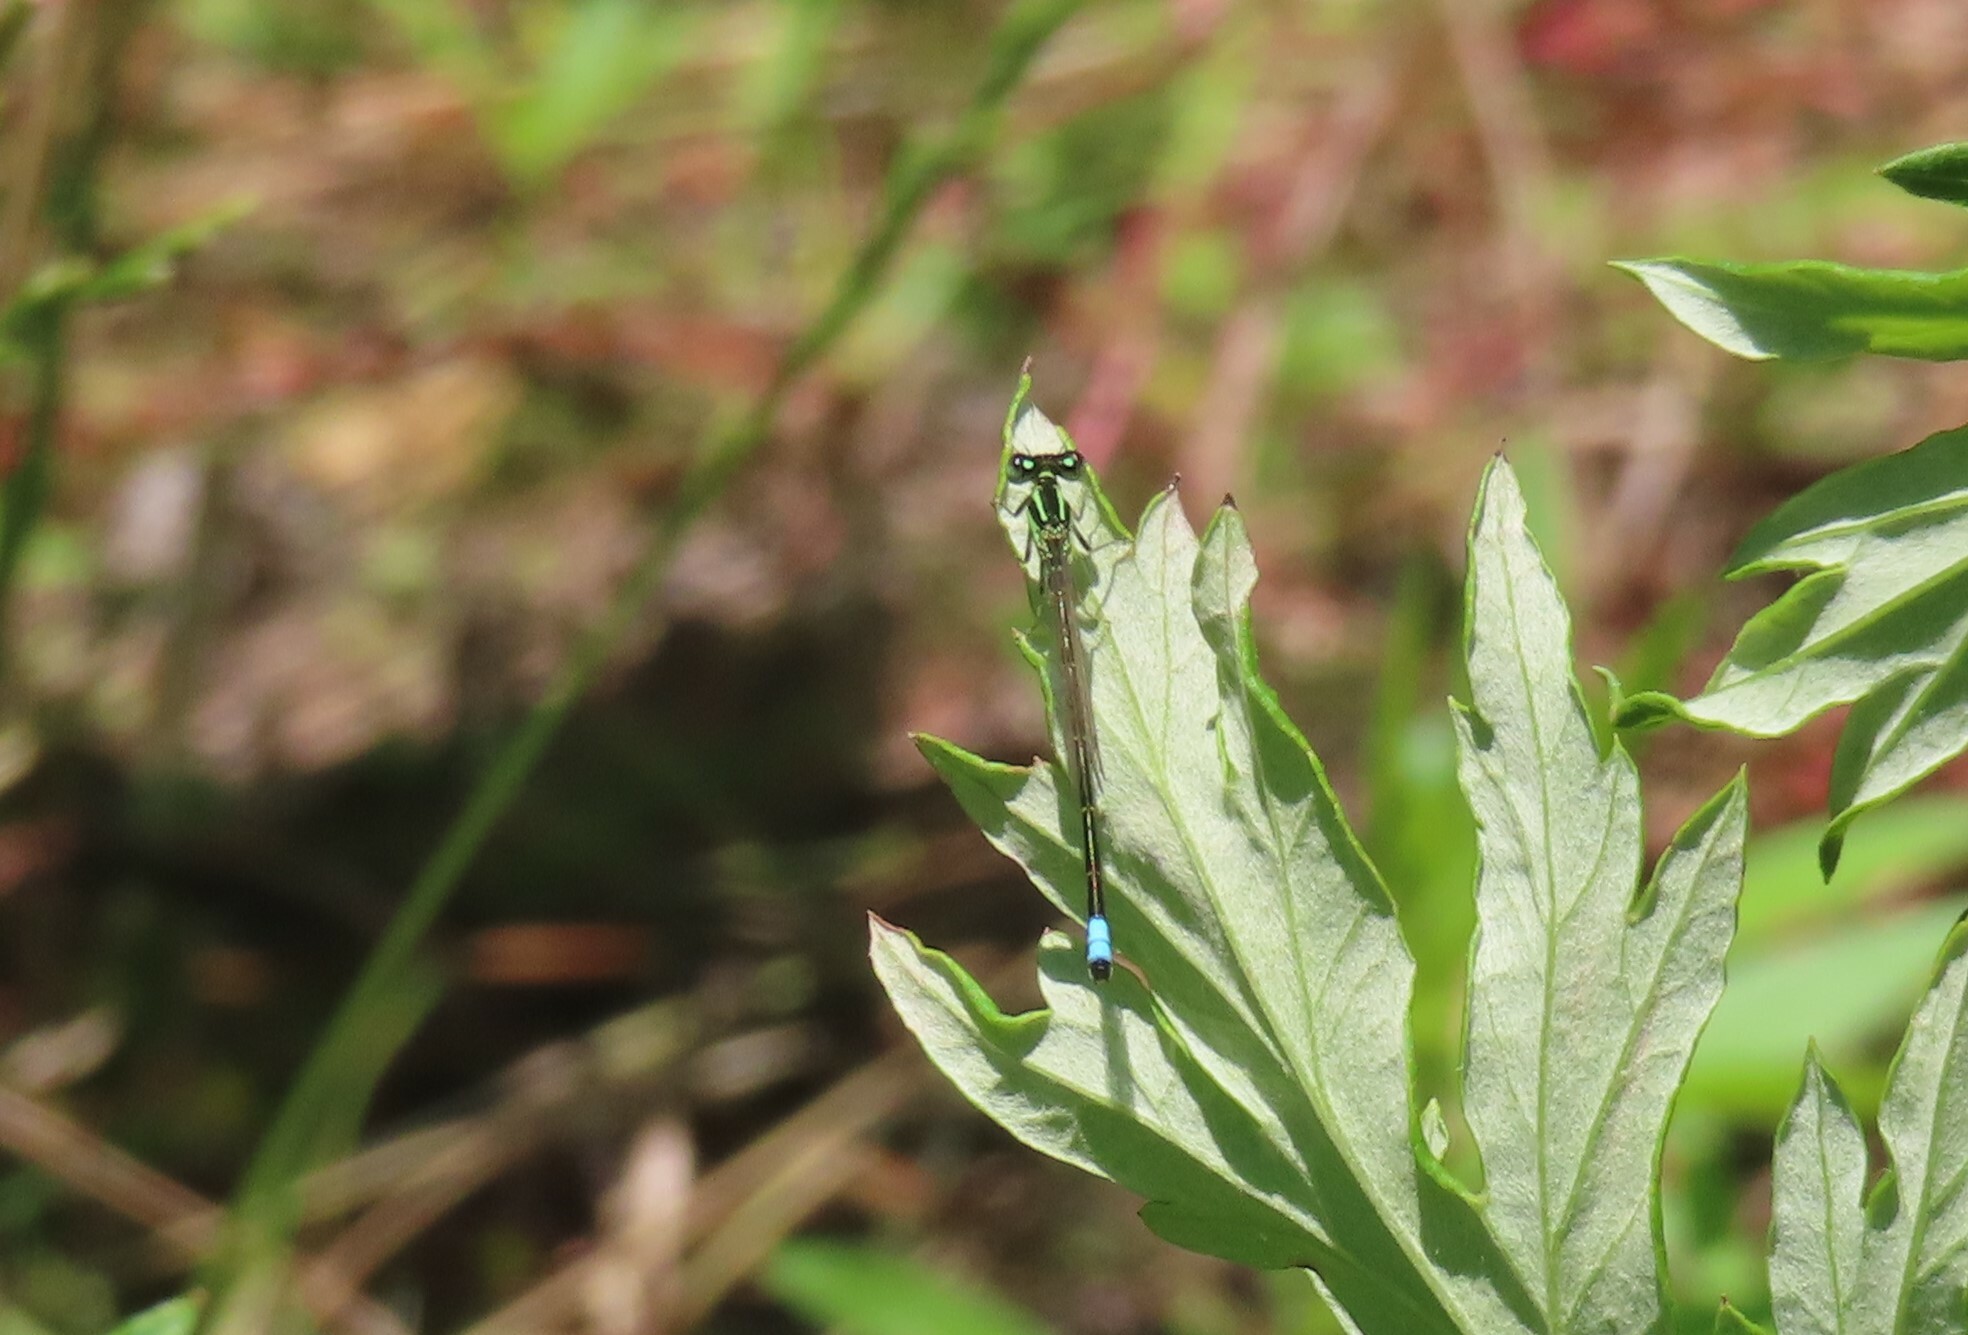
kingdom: Animalia
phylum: Arthropoda
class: Insecta
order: Odonata
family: Coenagrionidae
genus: Ischnura
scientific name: Ischnura verticalis
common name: Eastern forktail
